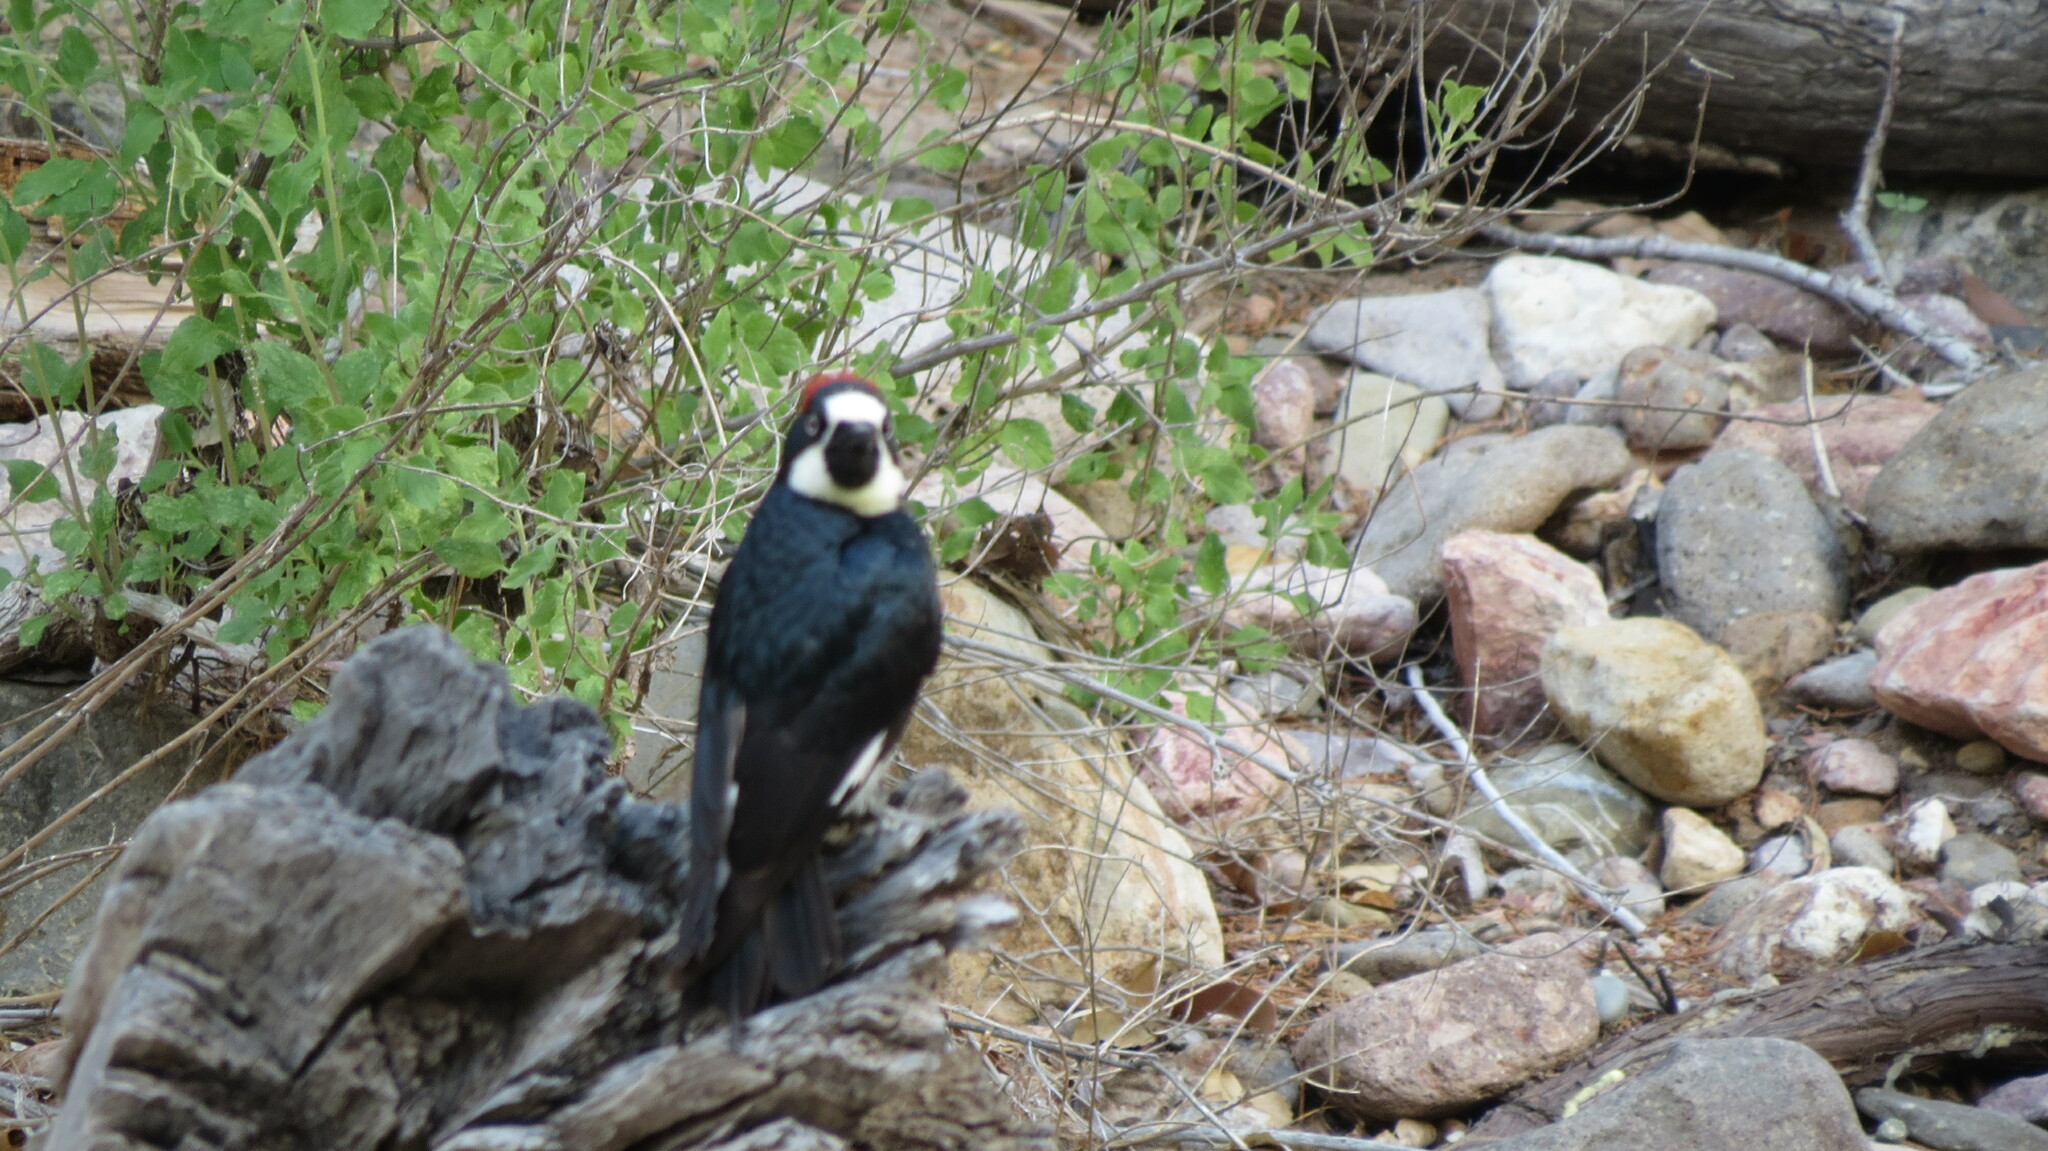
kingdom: Animalia
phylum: Chordata
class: Aves
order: Piciformes
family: Picidae
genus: Melanerpes
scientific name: Melanerpes formicivorus
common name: Acorn woodpecker
